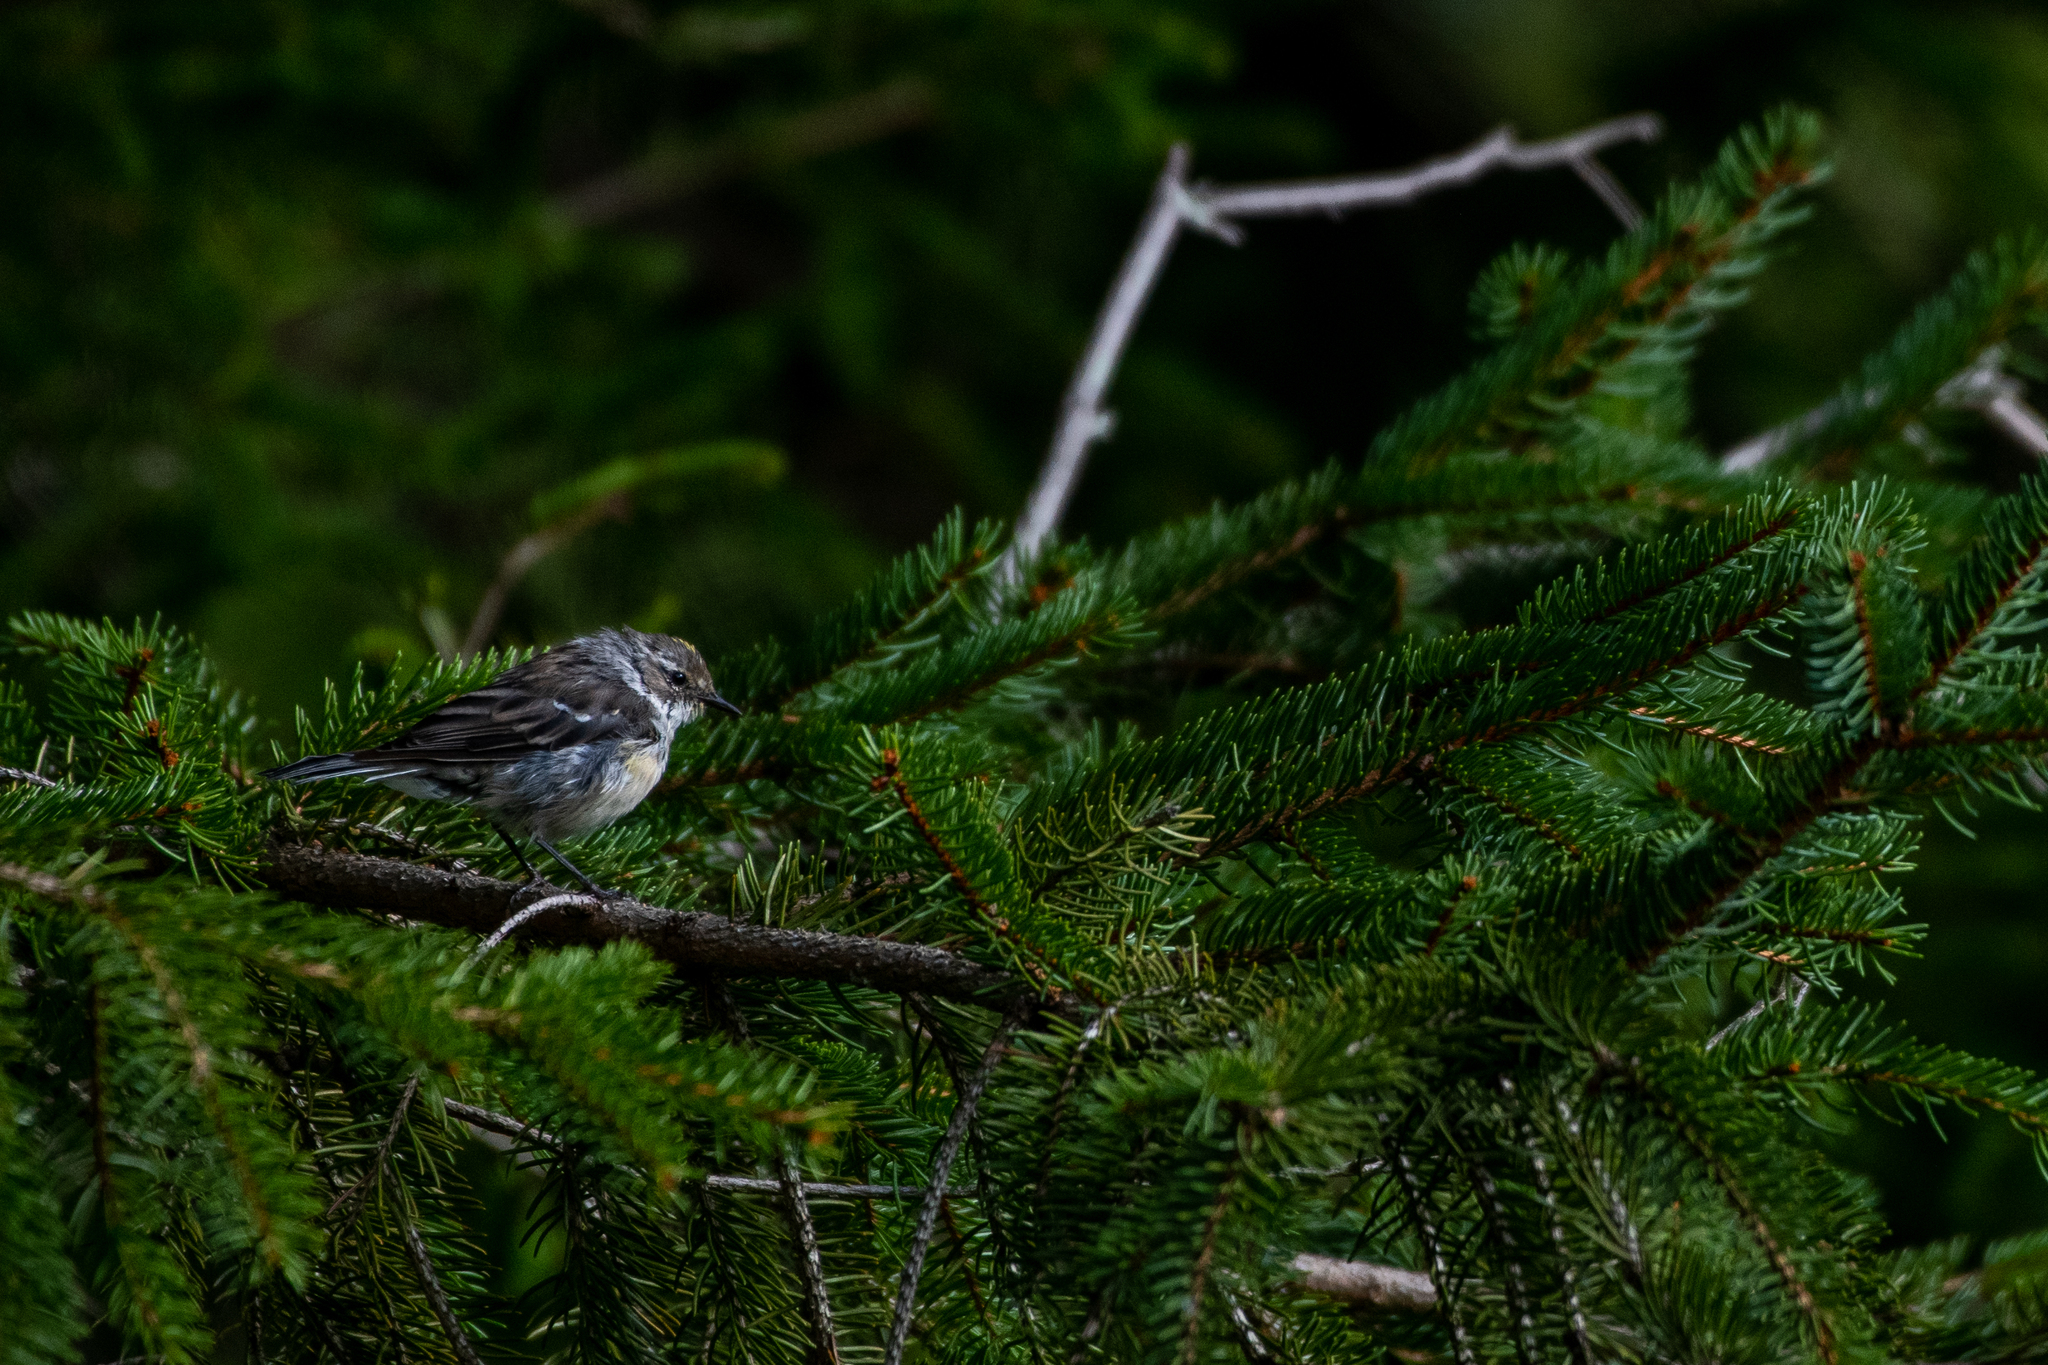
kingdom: Animalia
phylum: Chordata
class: Aves
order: Passeriformes
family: Parulidae
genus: Setophaga
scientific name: Setophaga coronata
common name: Myrtle warbler
